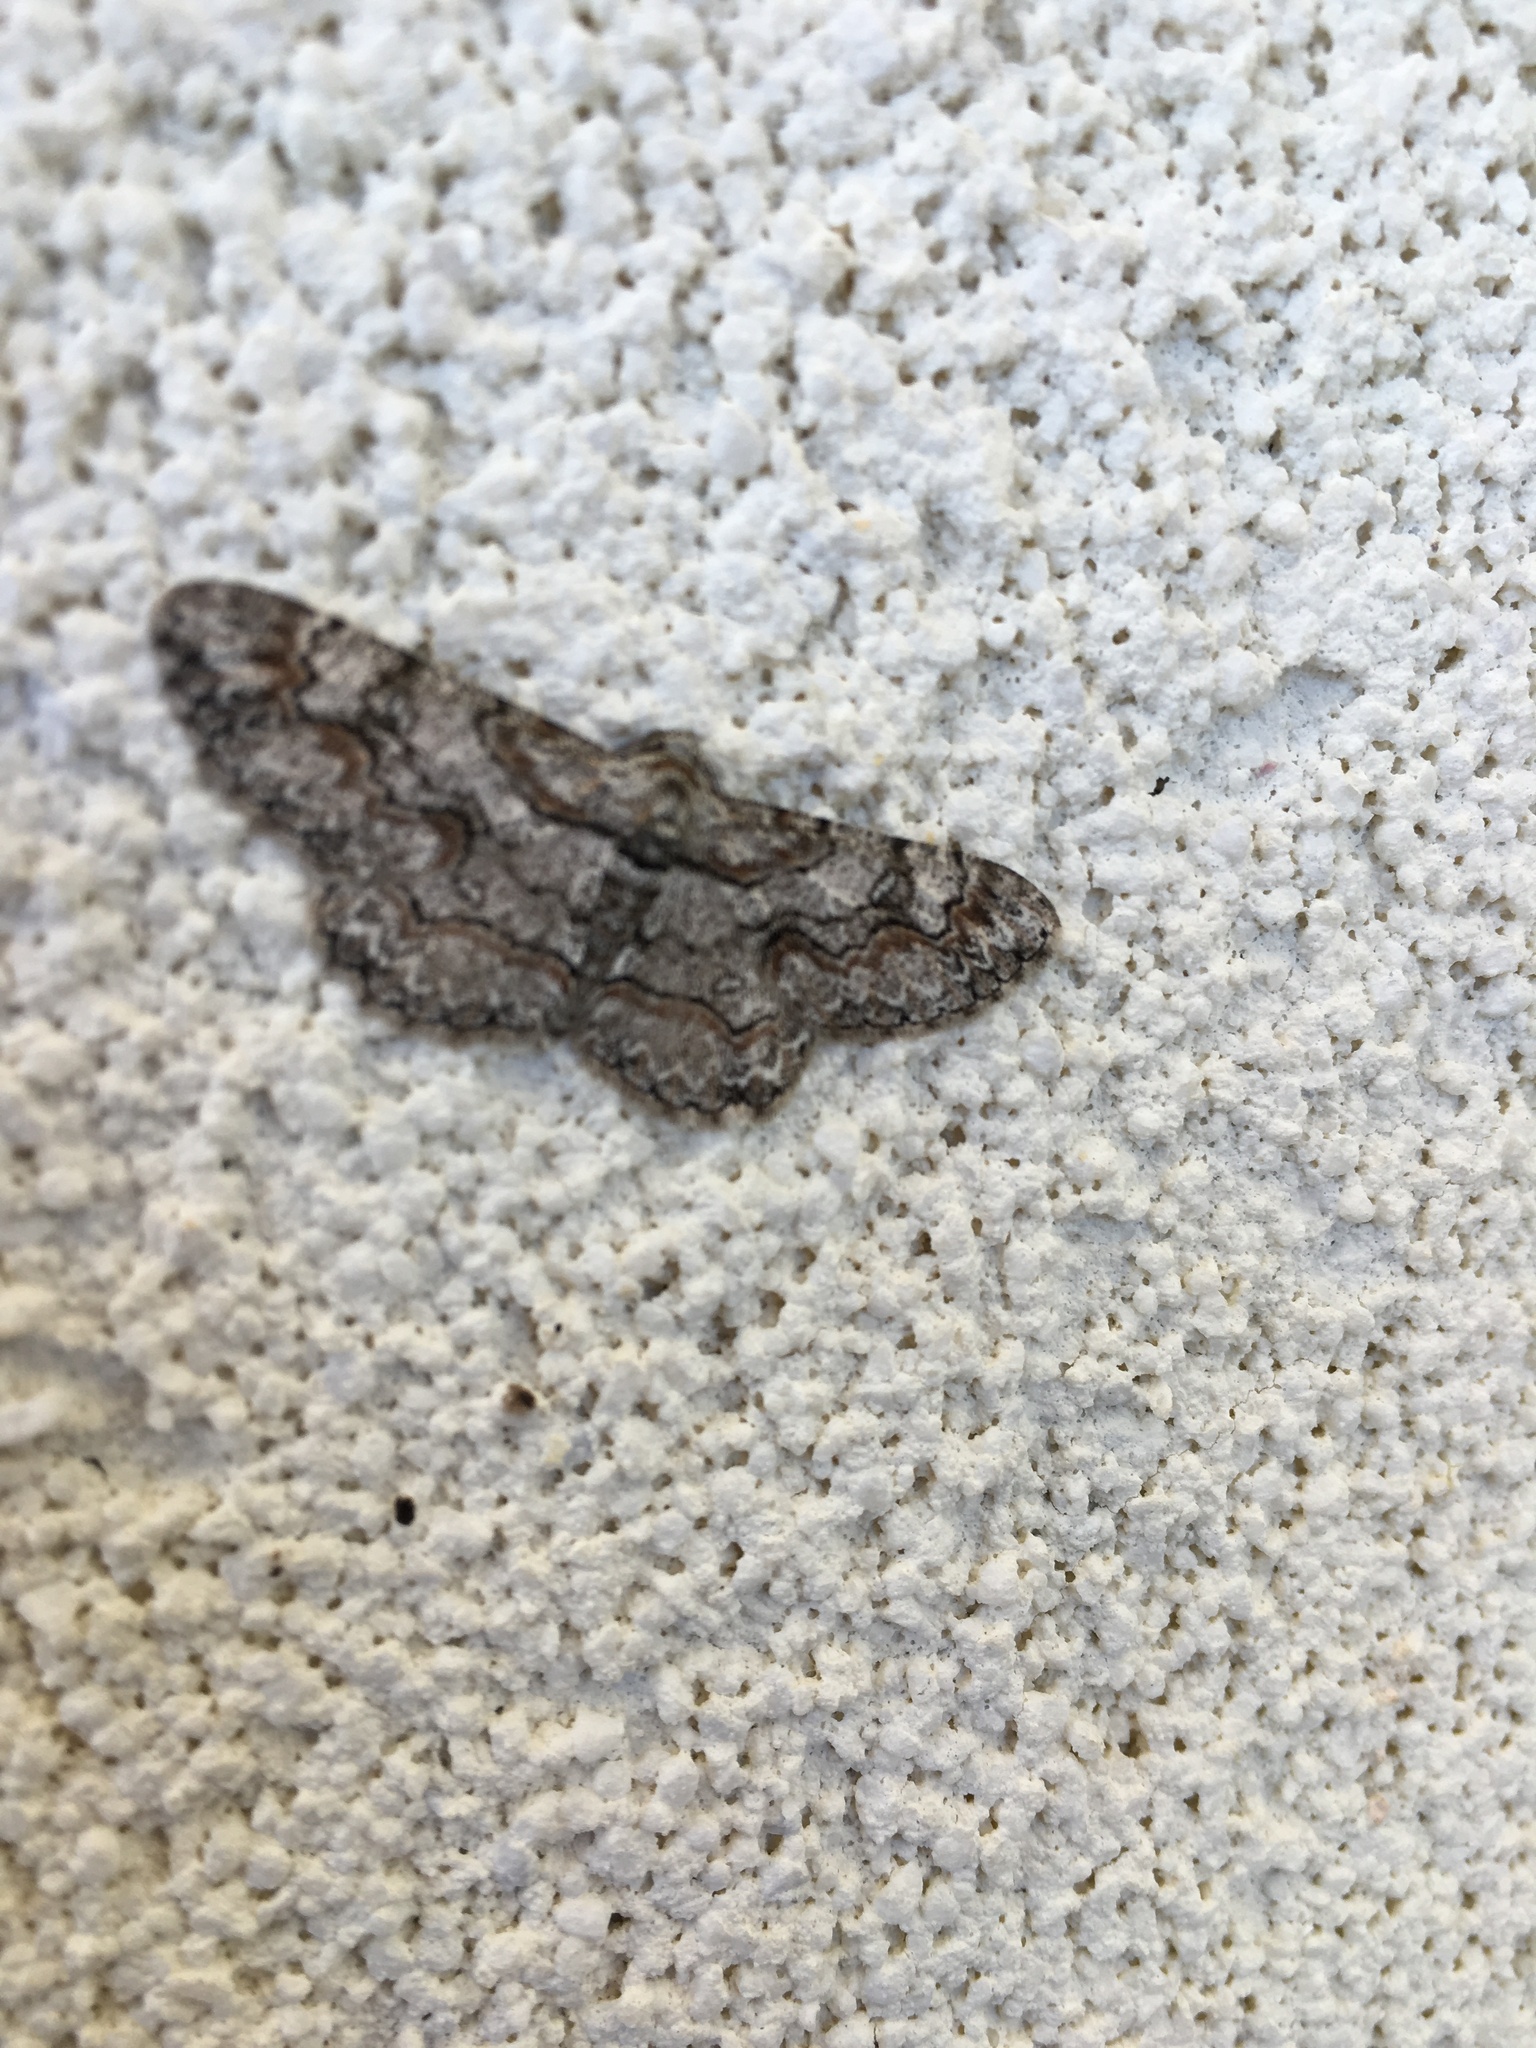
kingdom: Animalia
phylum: Arthropoda
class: Insecta
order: Lepidoptera
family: Geometridae
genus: Glenoides
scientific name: Glenoides texanaria
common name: Texas gray
